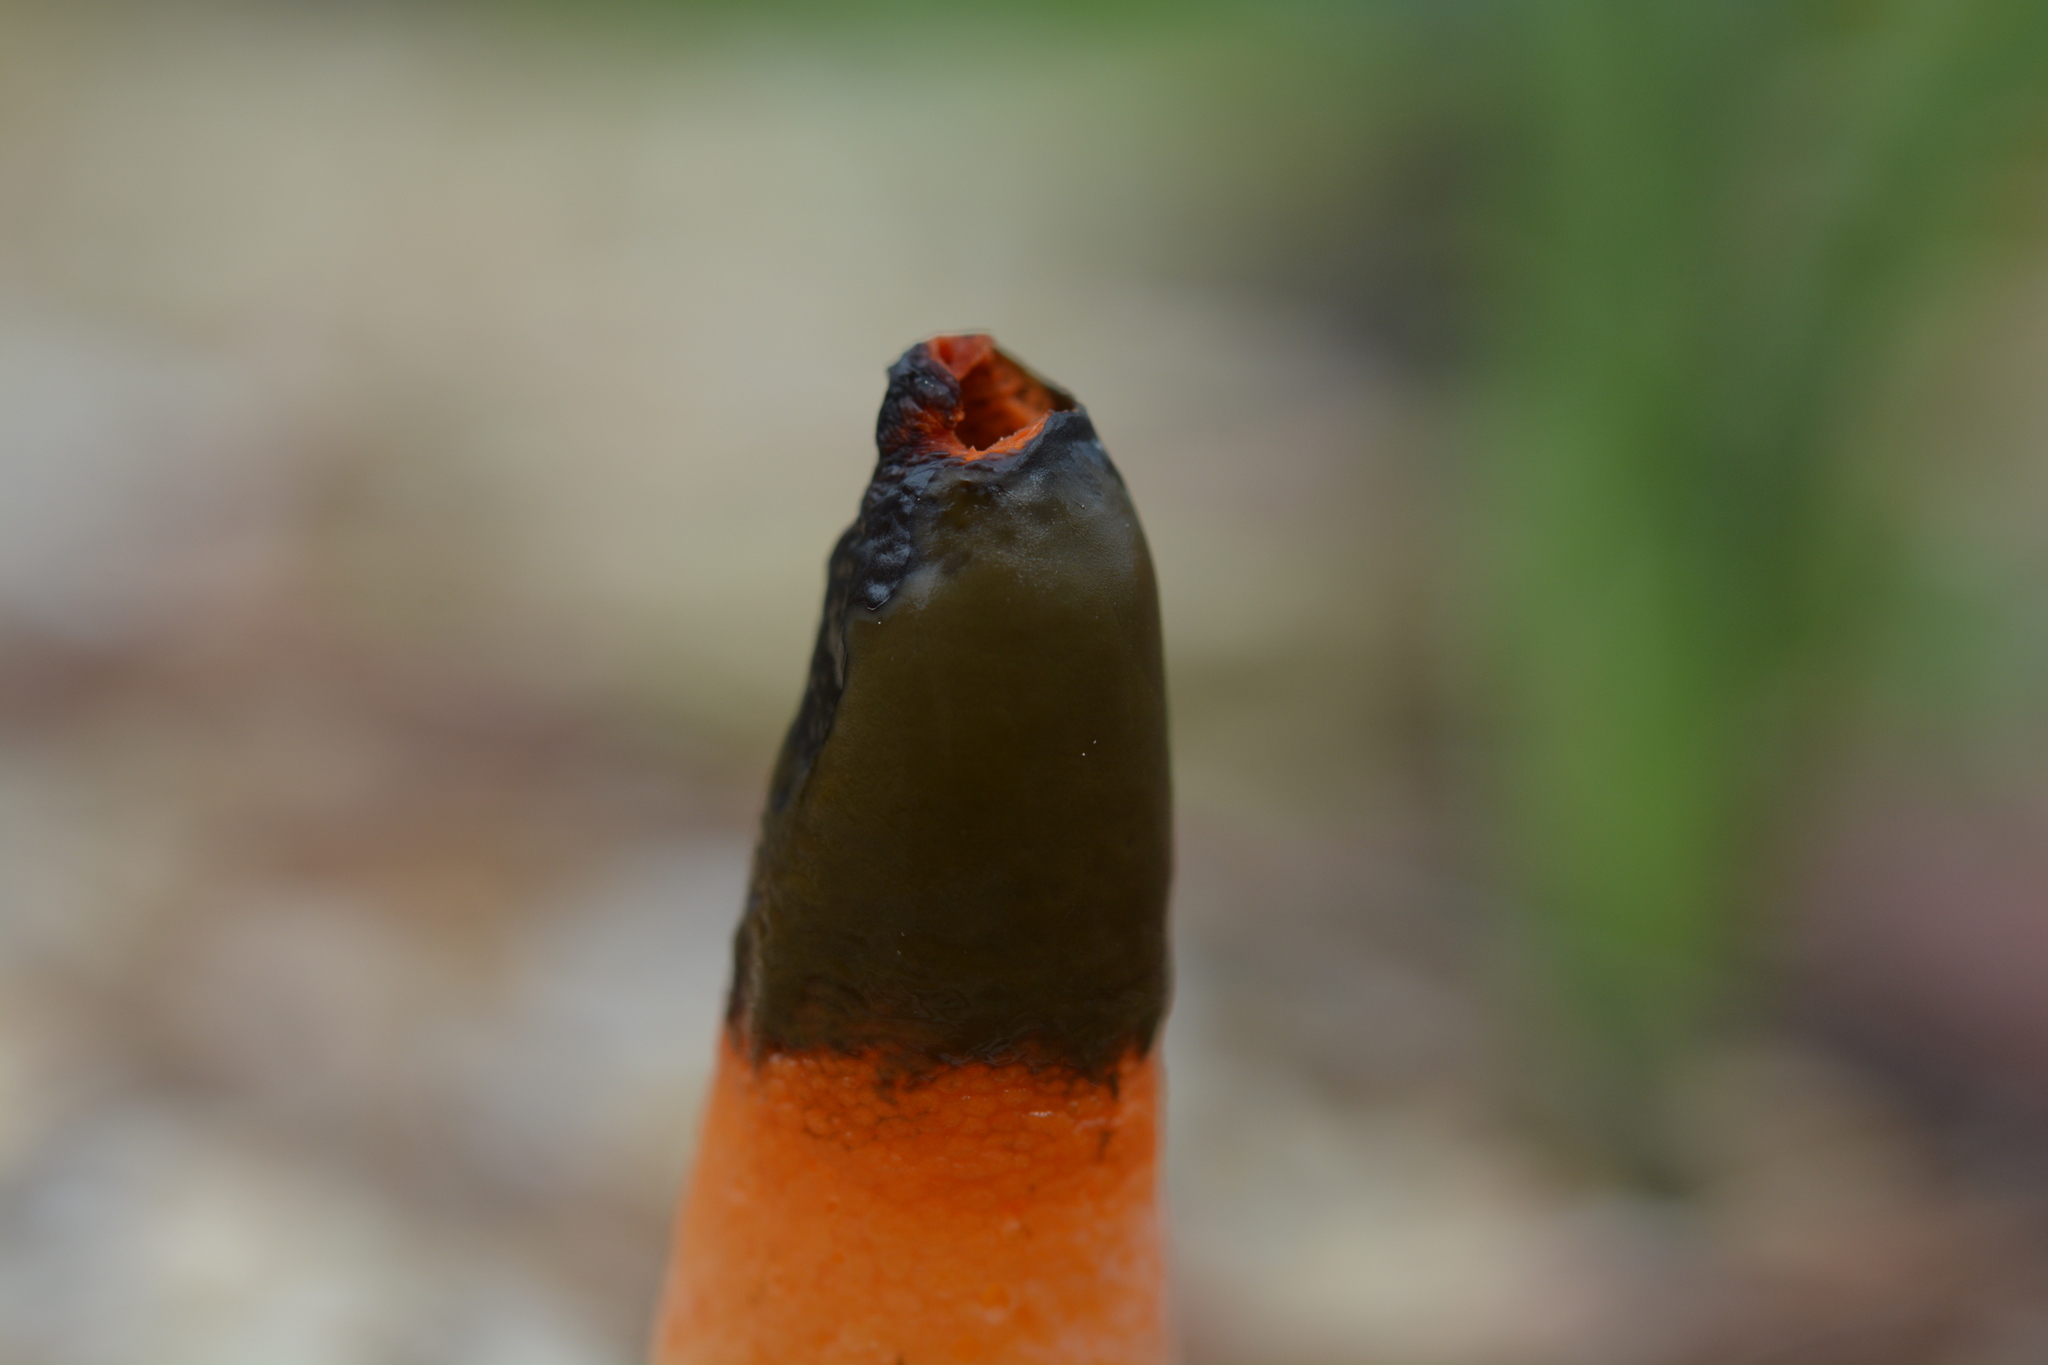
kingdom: Fungi
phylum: Basidiomycota
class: Agaricomycetes
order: Phallales
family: Phallaceae
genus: Mutinus
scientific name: Mutinus elegans
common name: Devil's dipstick
